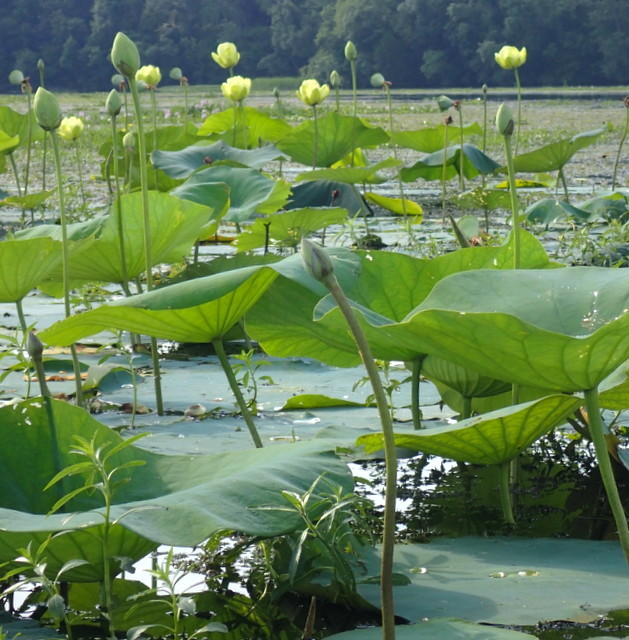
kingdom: Plantae
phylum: Tracheophyta
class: Magnoliopsida
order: Proteales
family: Nelumbonaceae
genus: Nelumbo
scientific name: Nelumbo lutea
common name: American lotus
